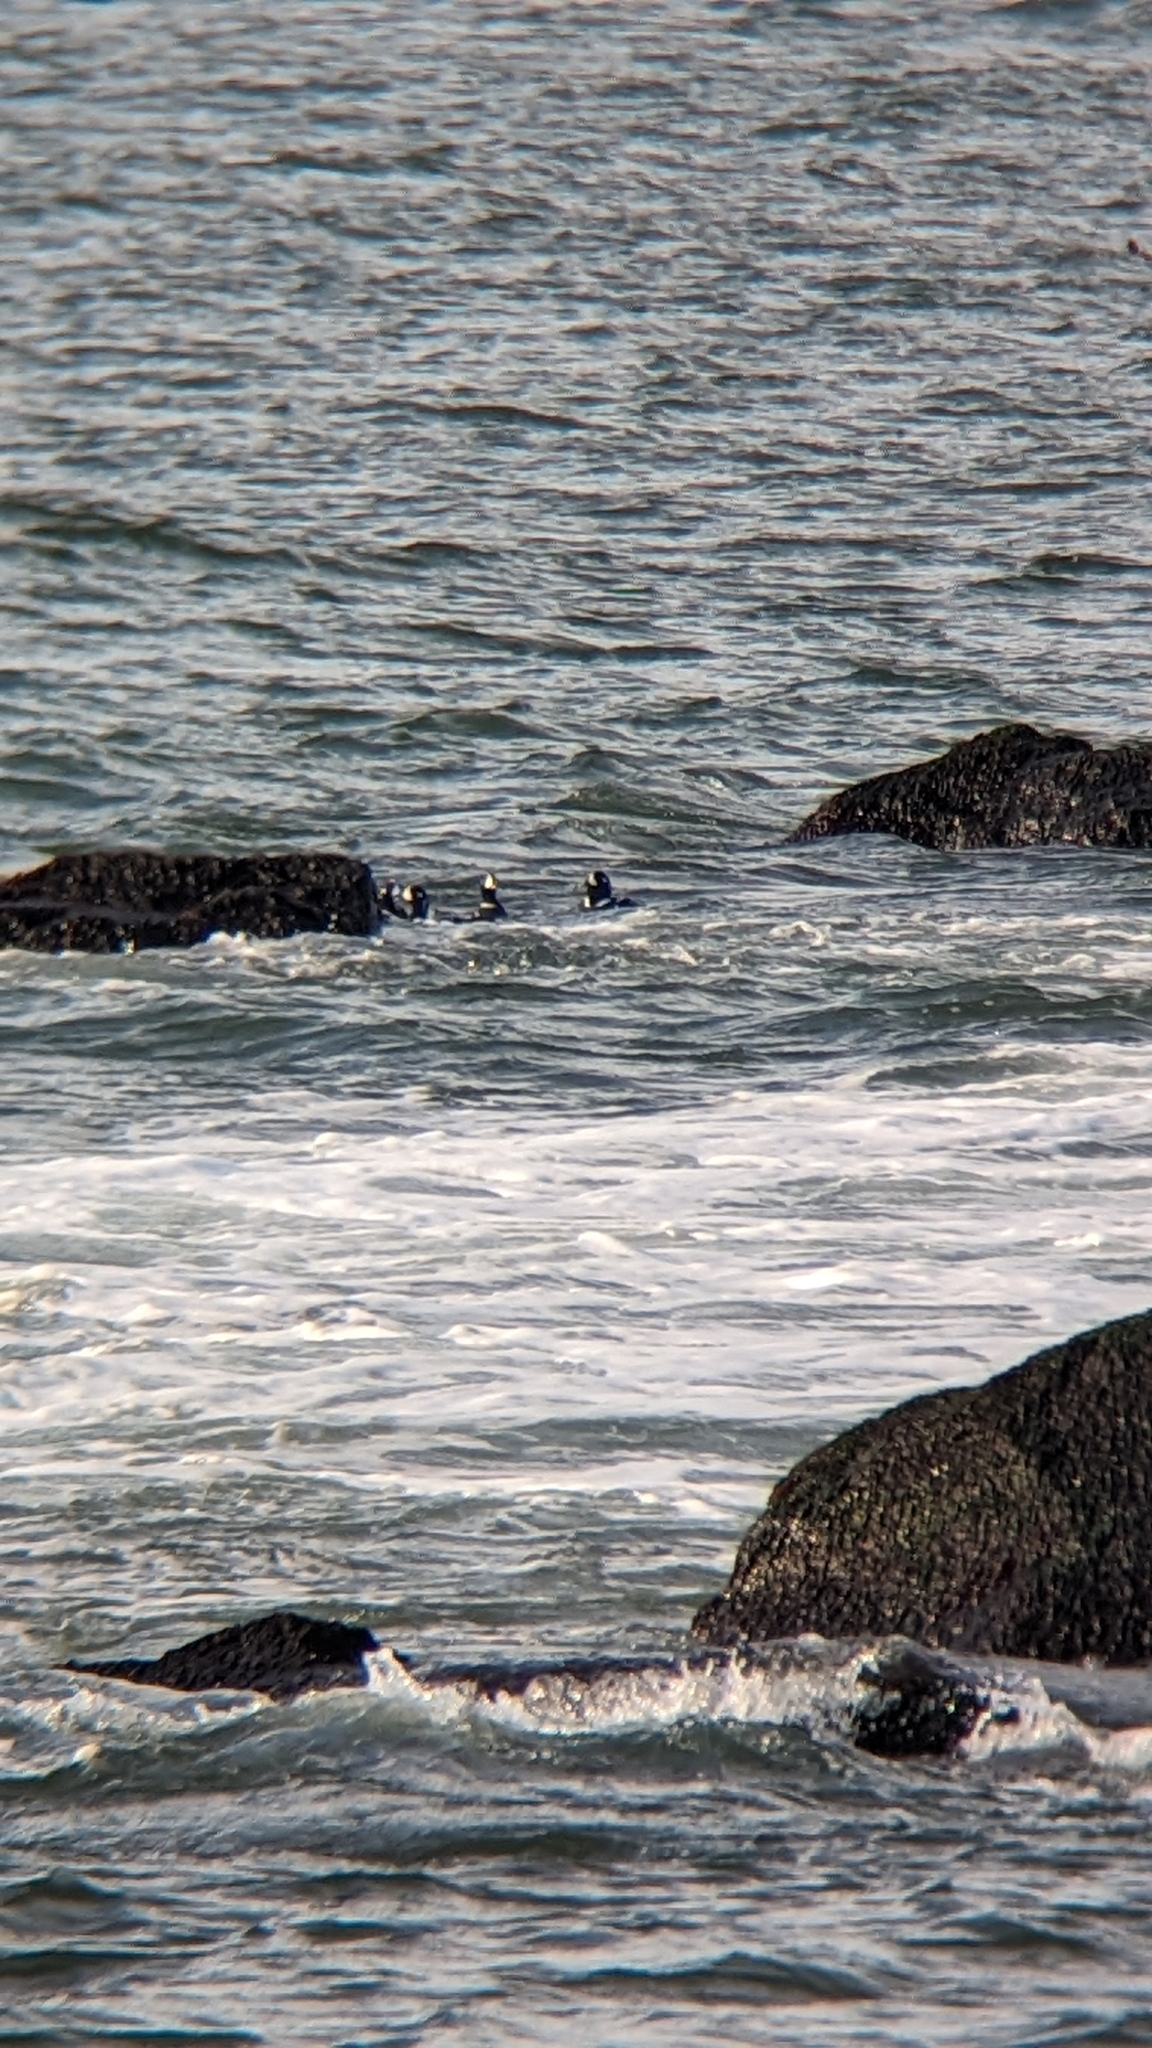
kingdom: Animalia
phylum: Chordata
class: Aves
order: Anseriformes
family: Anatidae
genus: Histrionicus
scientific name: Histrionicus histrionicus
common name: Harlequin duck
